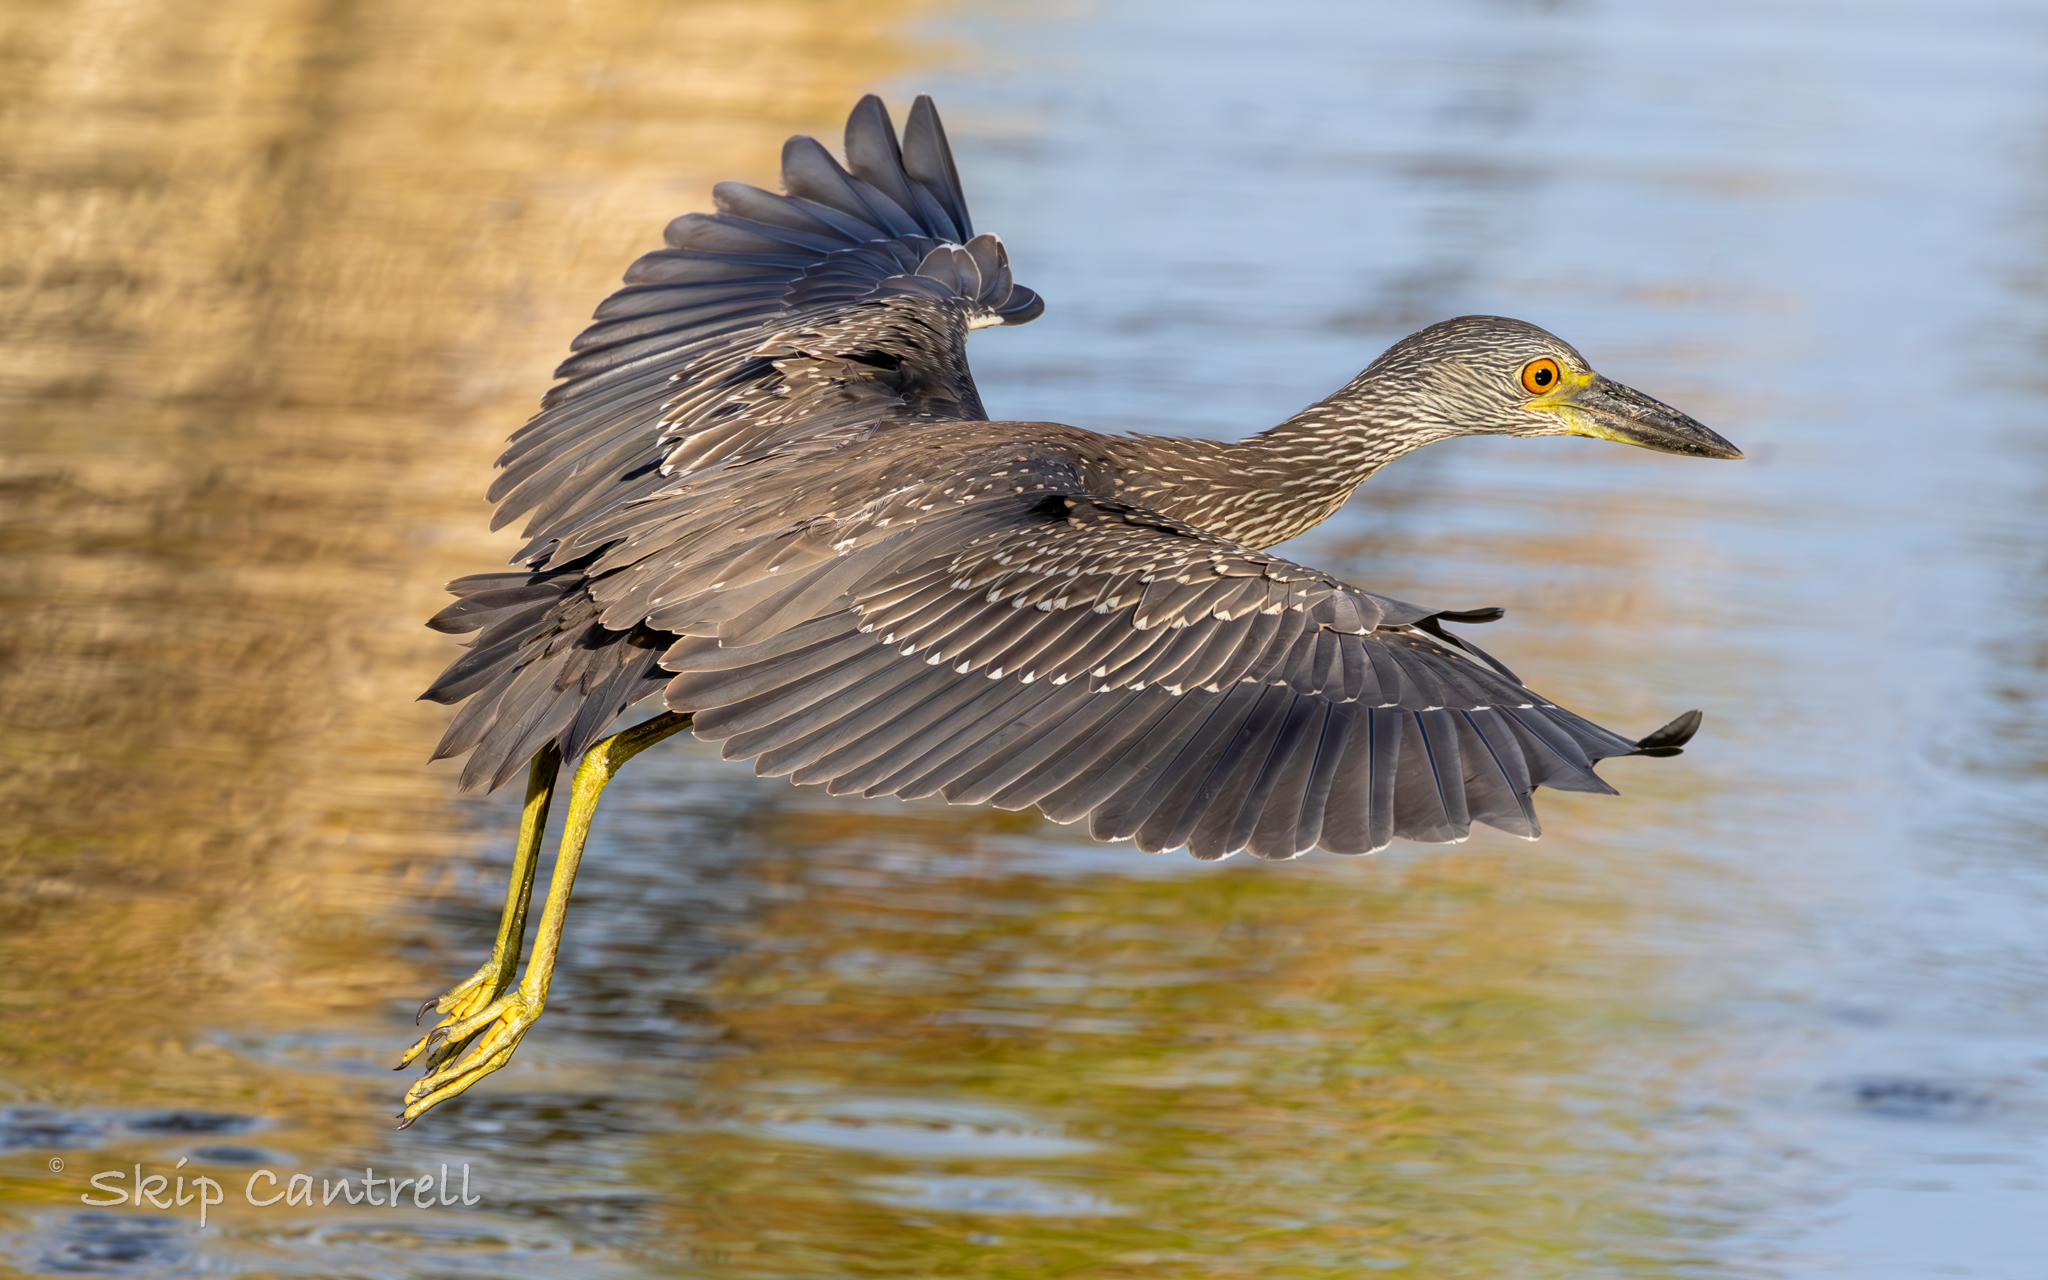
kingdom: Animalia
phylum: Chordata
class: Aves
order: Pelecaniformes
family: Ardeidae
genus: Nyctanassa
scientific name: Nyctanassa violacea
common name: Yellow-crowned night heron
